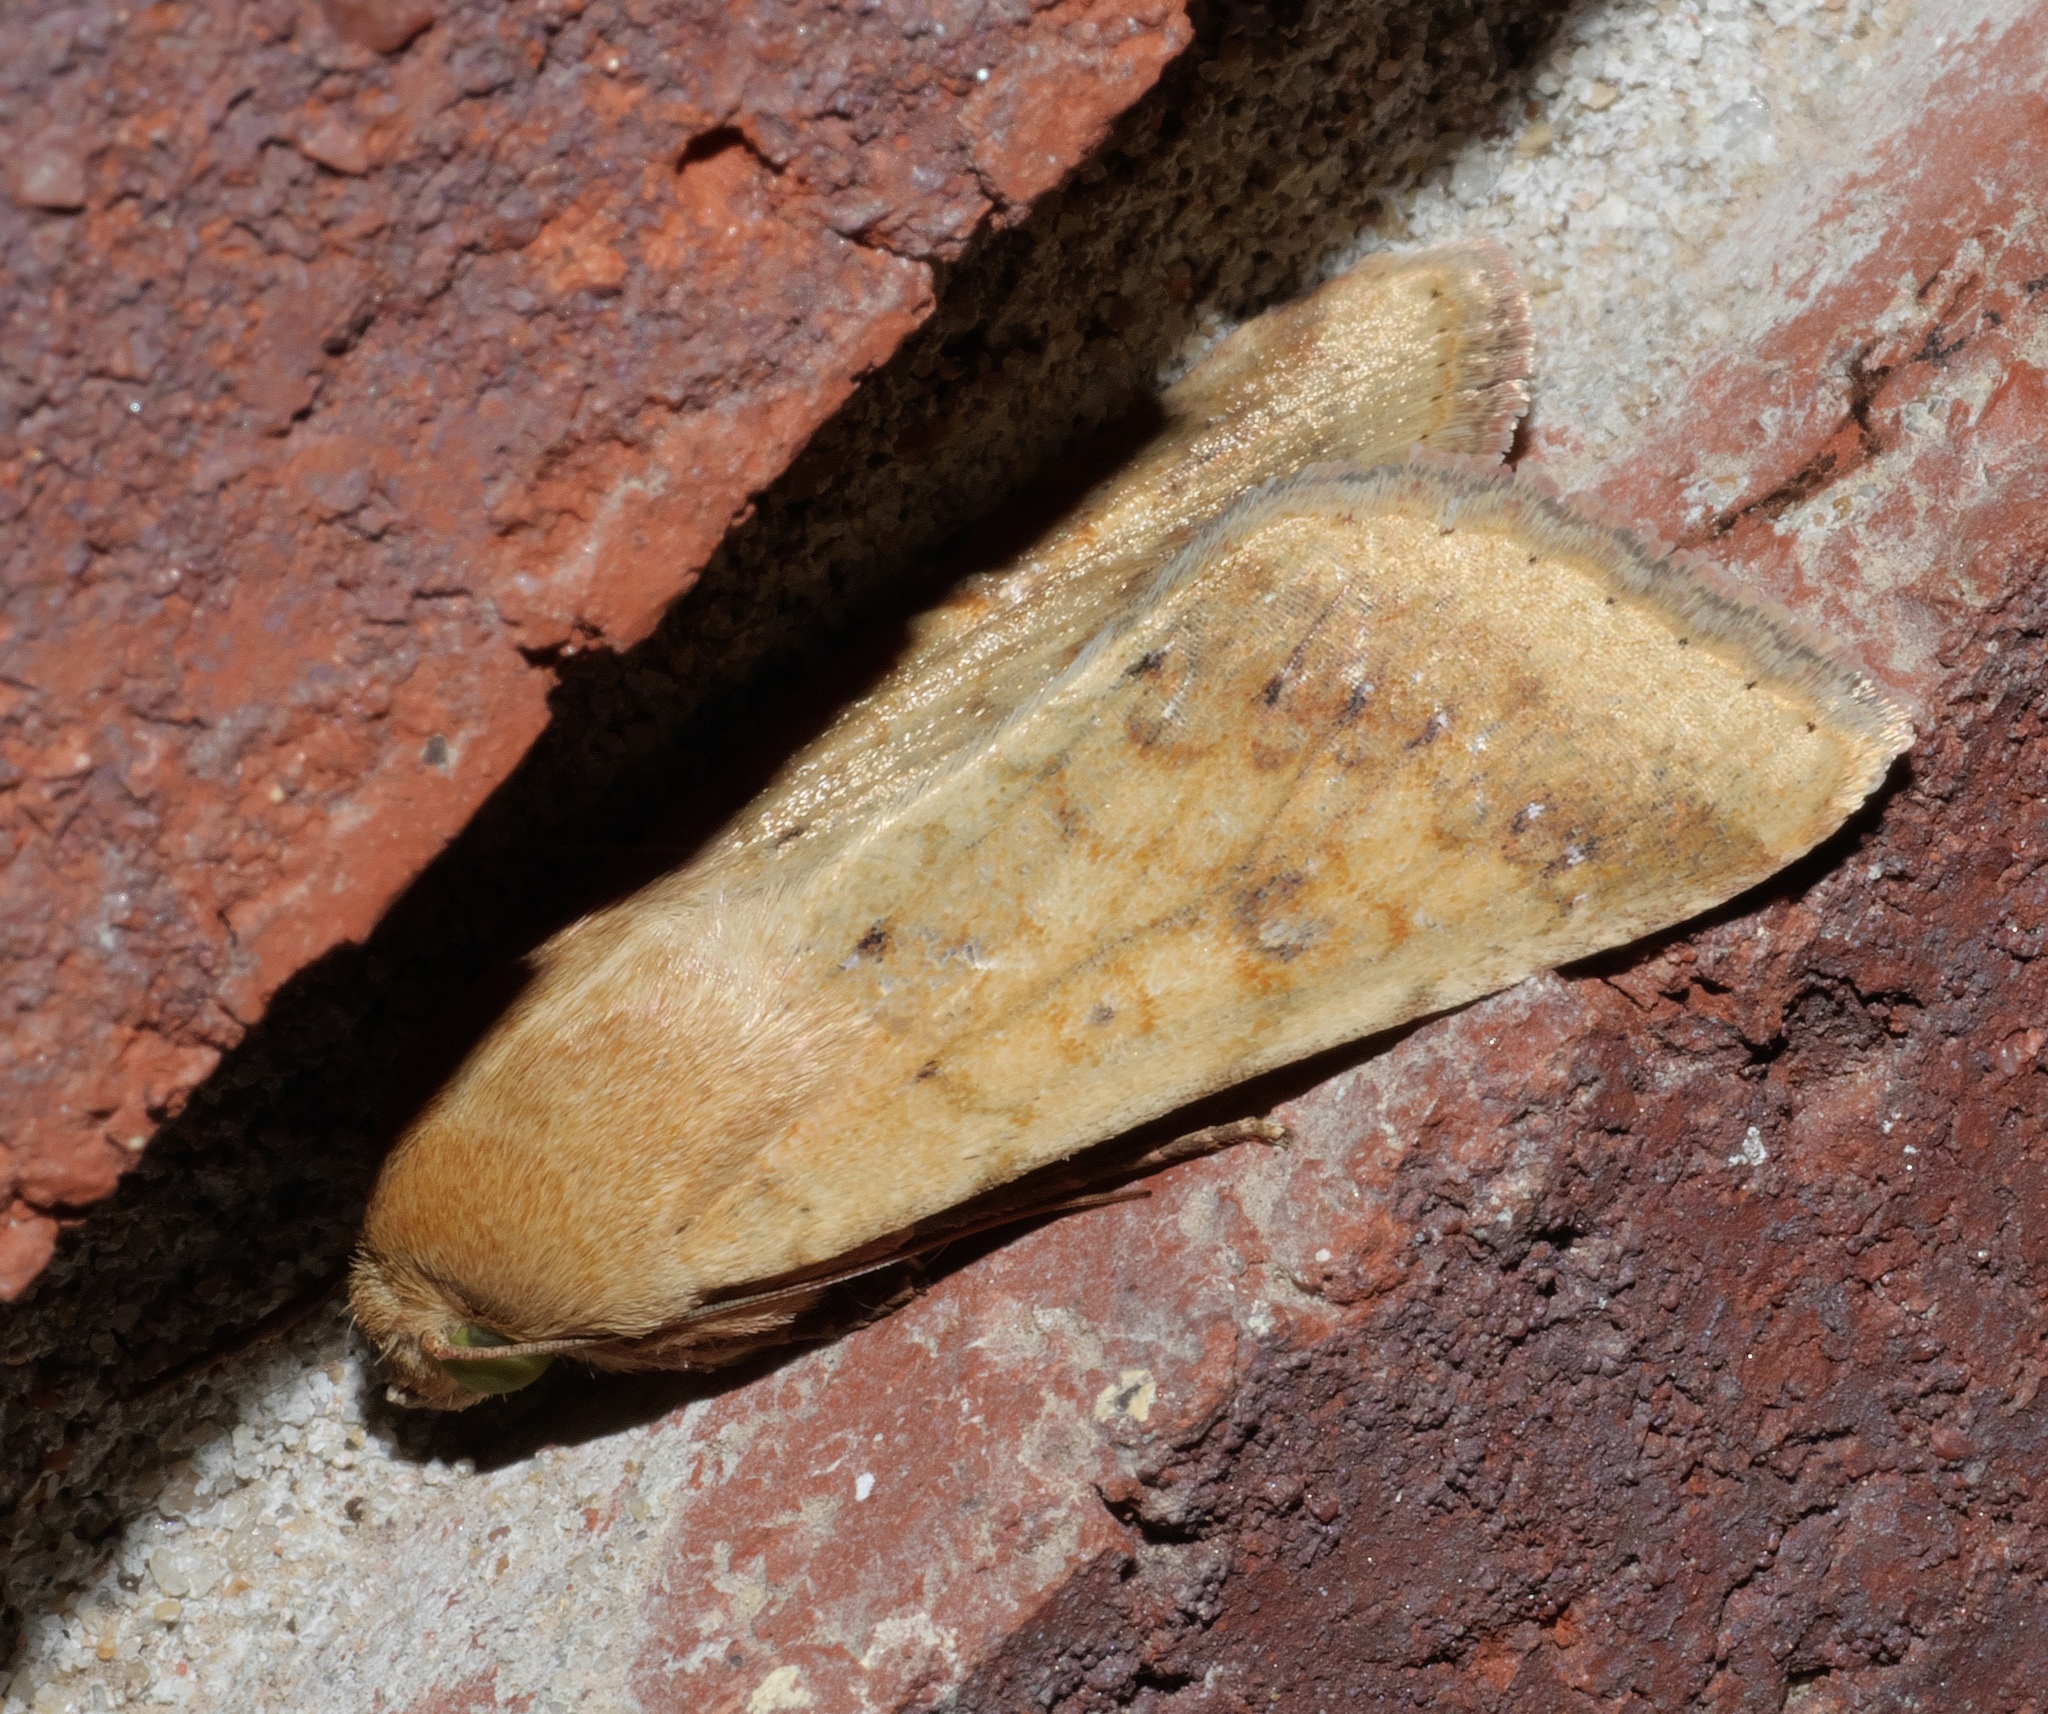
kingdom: Animalia
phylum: Arthropoda
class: Insecta
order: Lepidoptera
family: Noctuidae
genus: Helicoverpa
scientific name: Helicoverpa zea
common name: Bollworm
